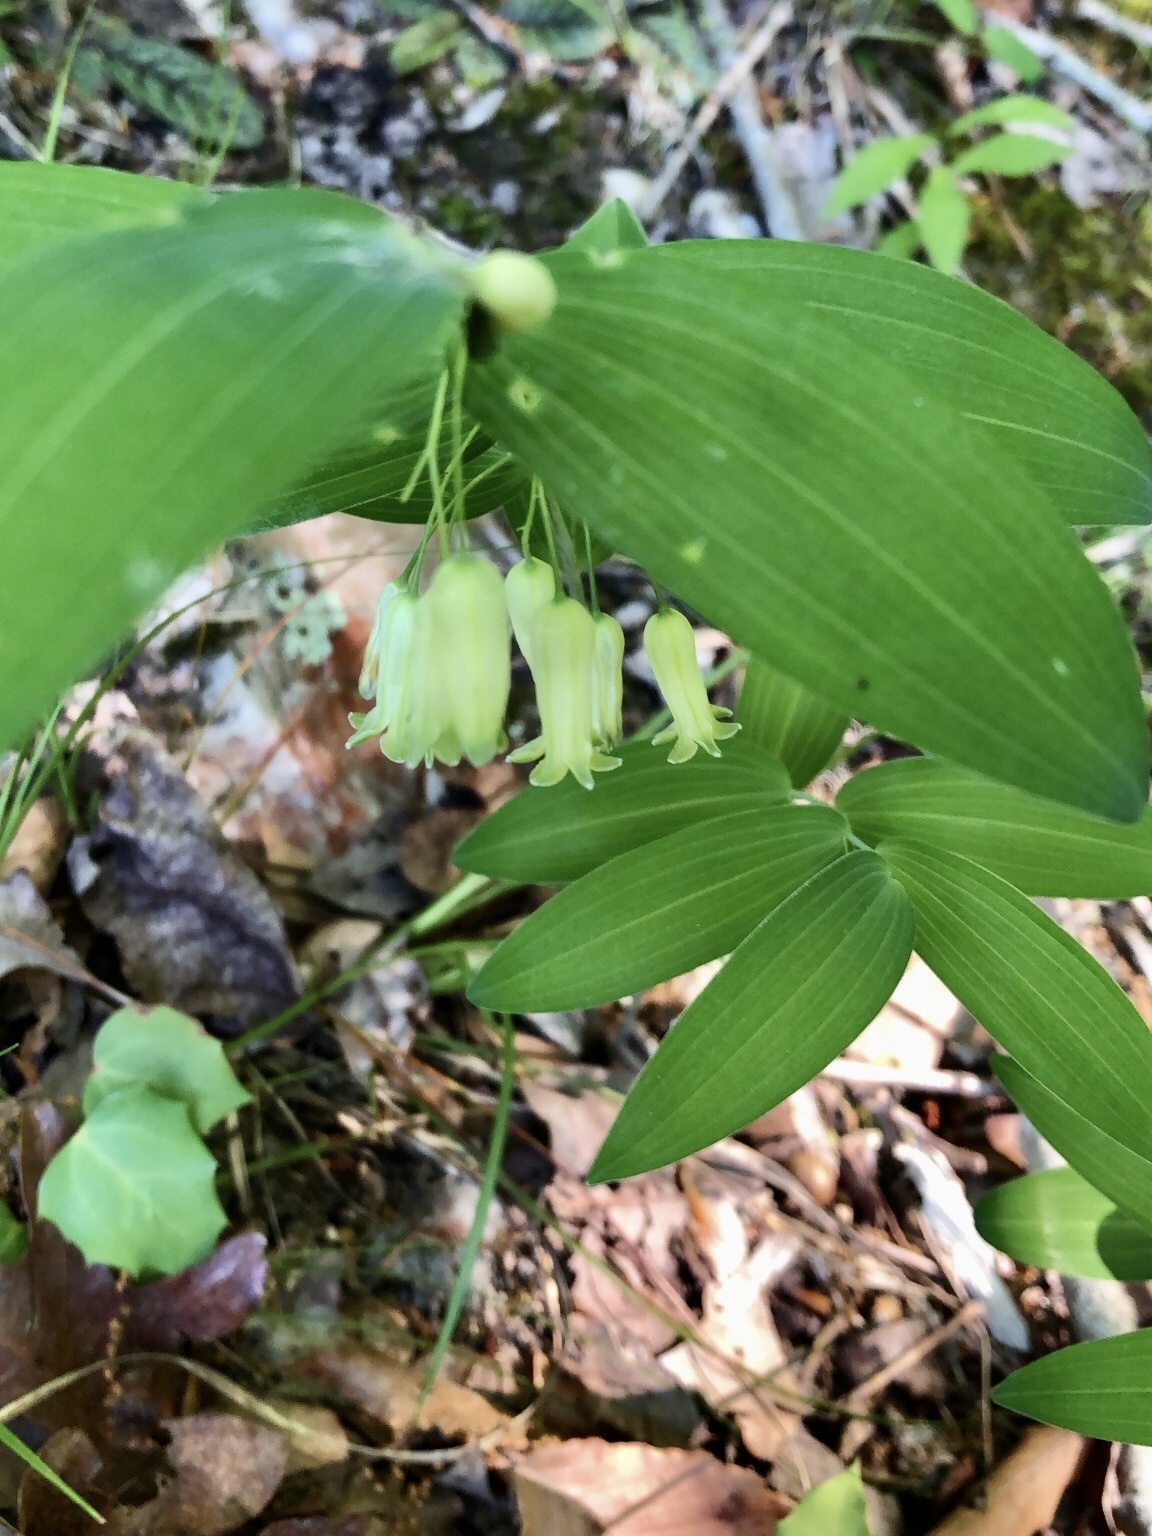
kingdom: Plantae
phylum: Tracheophyta
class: Liliopsida
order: Asparagales
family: Asparagaceae
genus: Polygonatum
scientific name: Polygonatum biflorum
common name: American solomon's-seal
